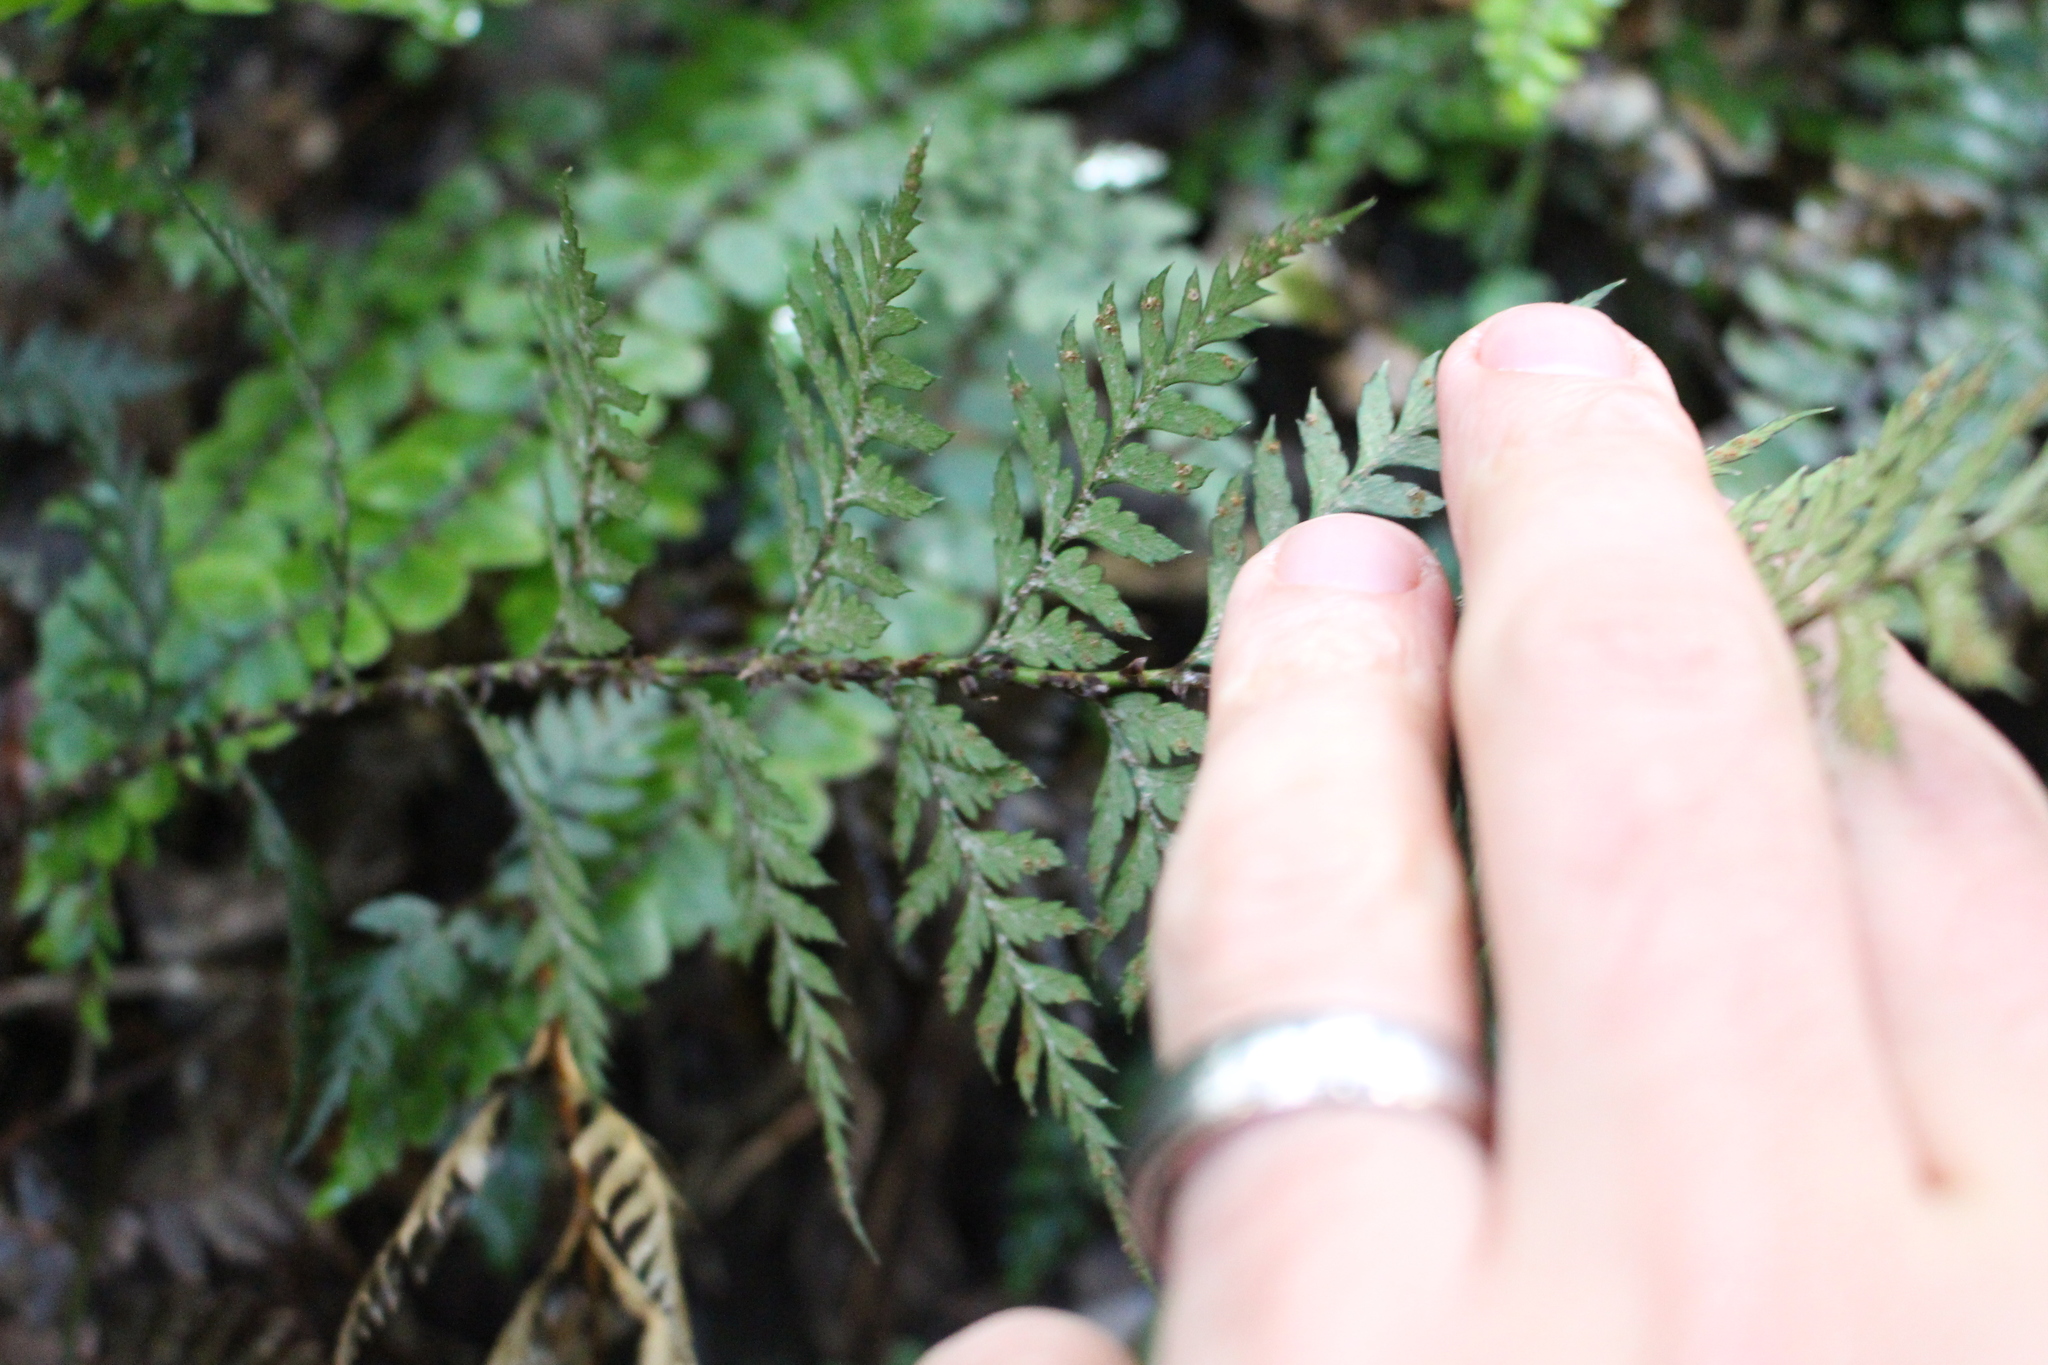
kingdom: Plantae
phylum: Tracheophyta
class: Polypodiopsida
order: Polypodiales
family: Dryopteridaceae
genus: Polystichum
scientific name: Polystichum oculatum
